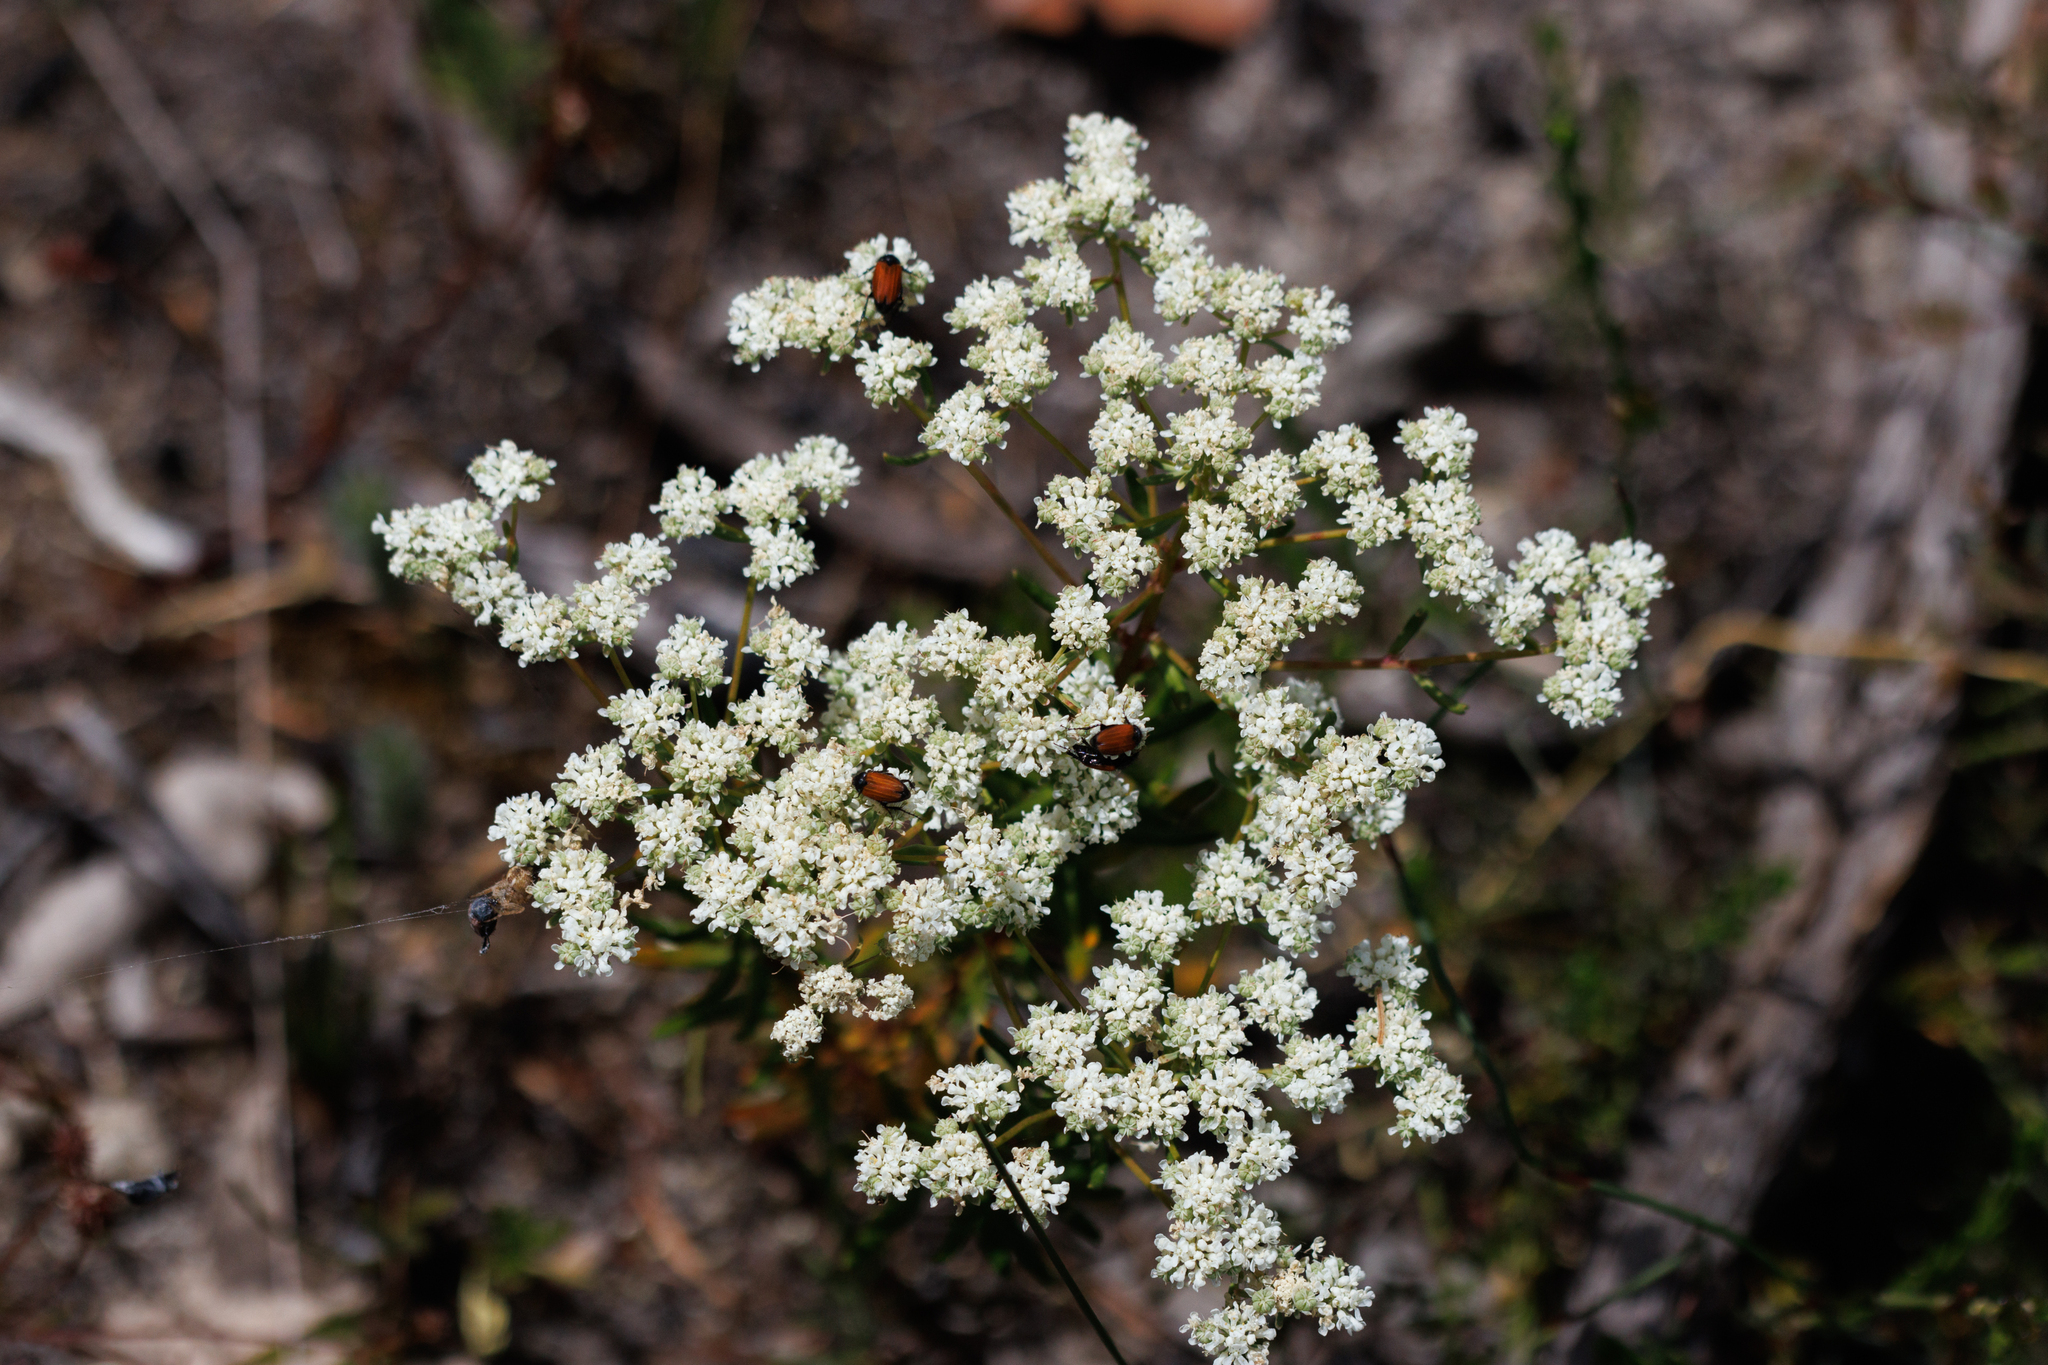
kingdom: Plantae
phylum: Tracheophyta
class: Magnoliopsida
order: Malpighiales
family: Phyllanthaceae
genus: Poranthera
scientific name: Poranthera huegelii
